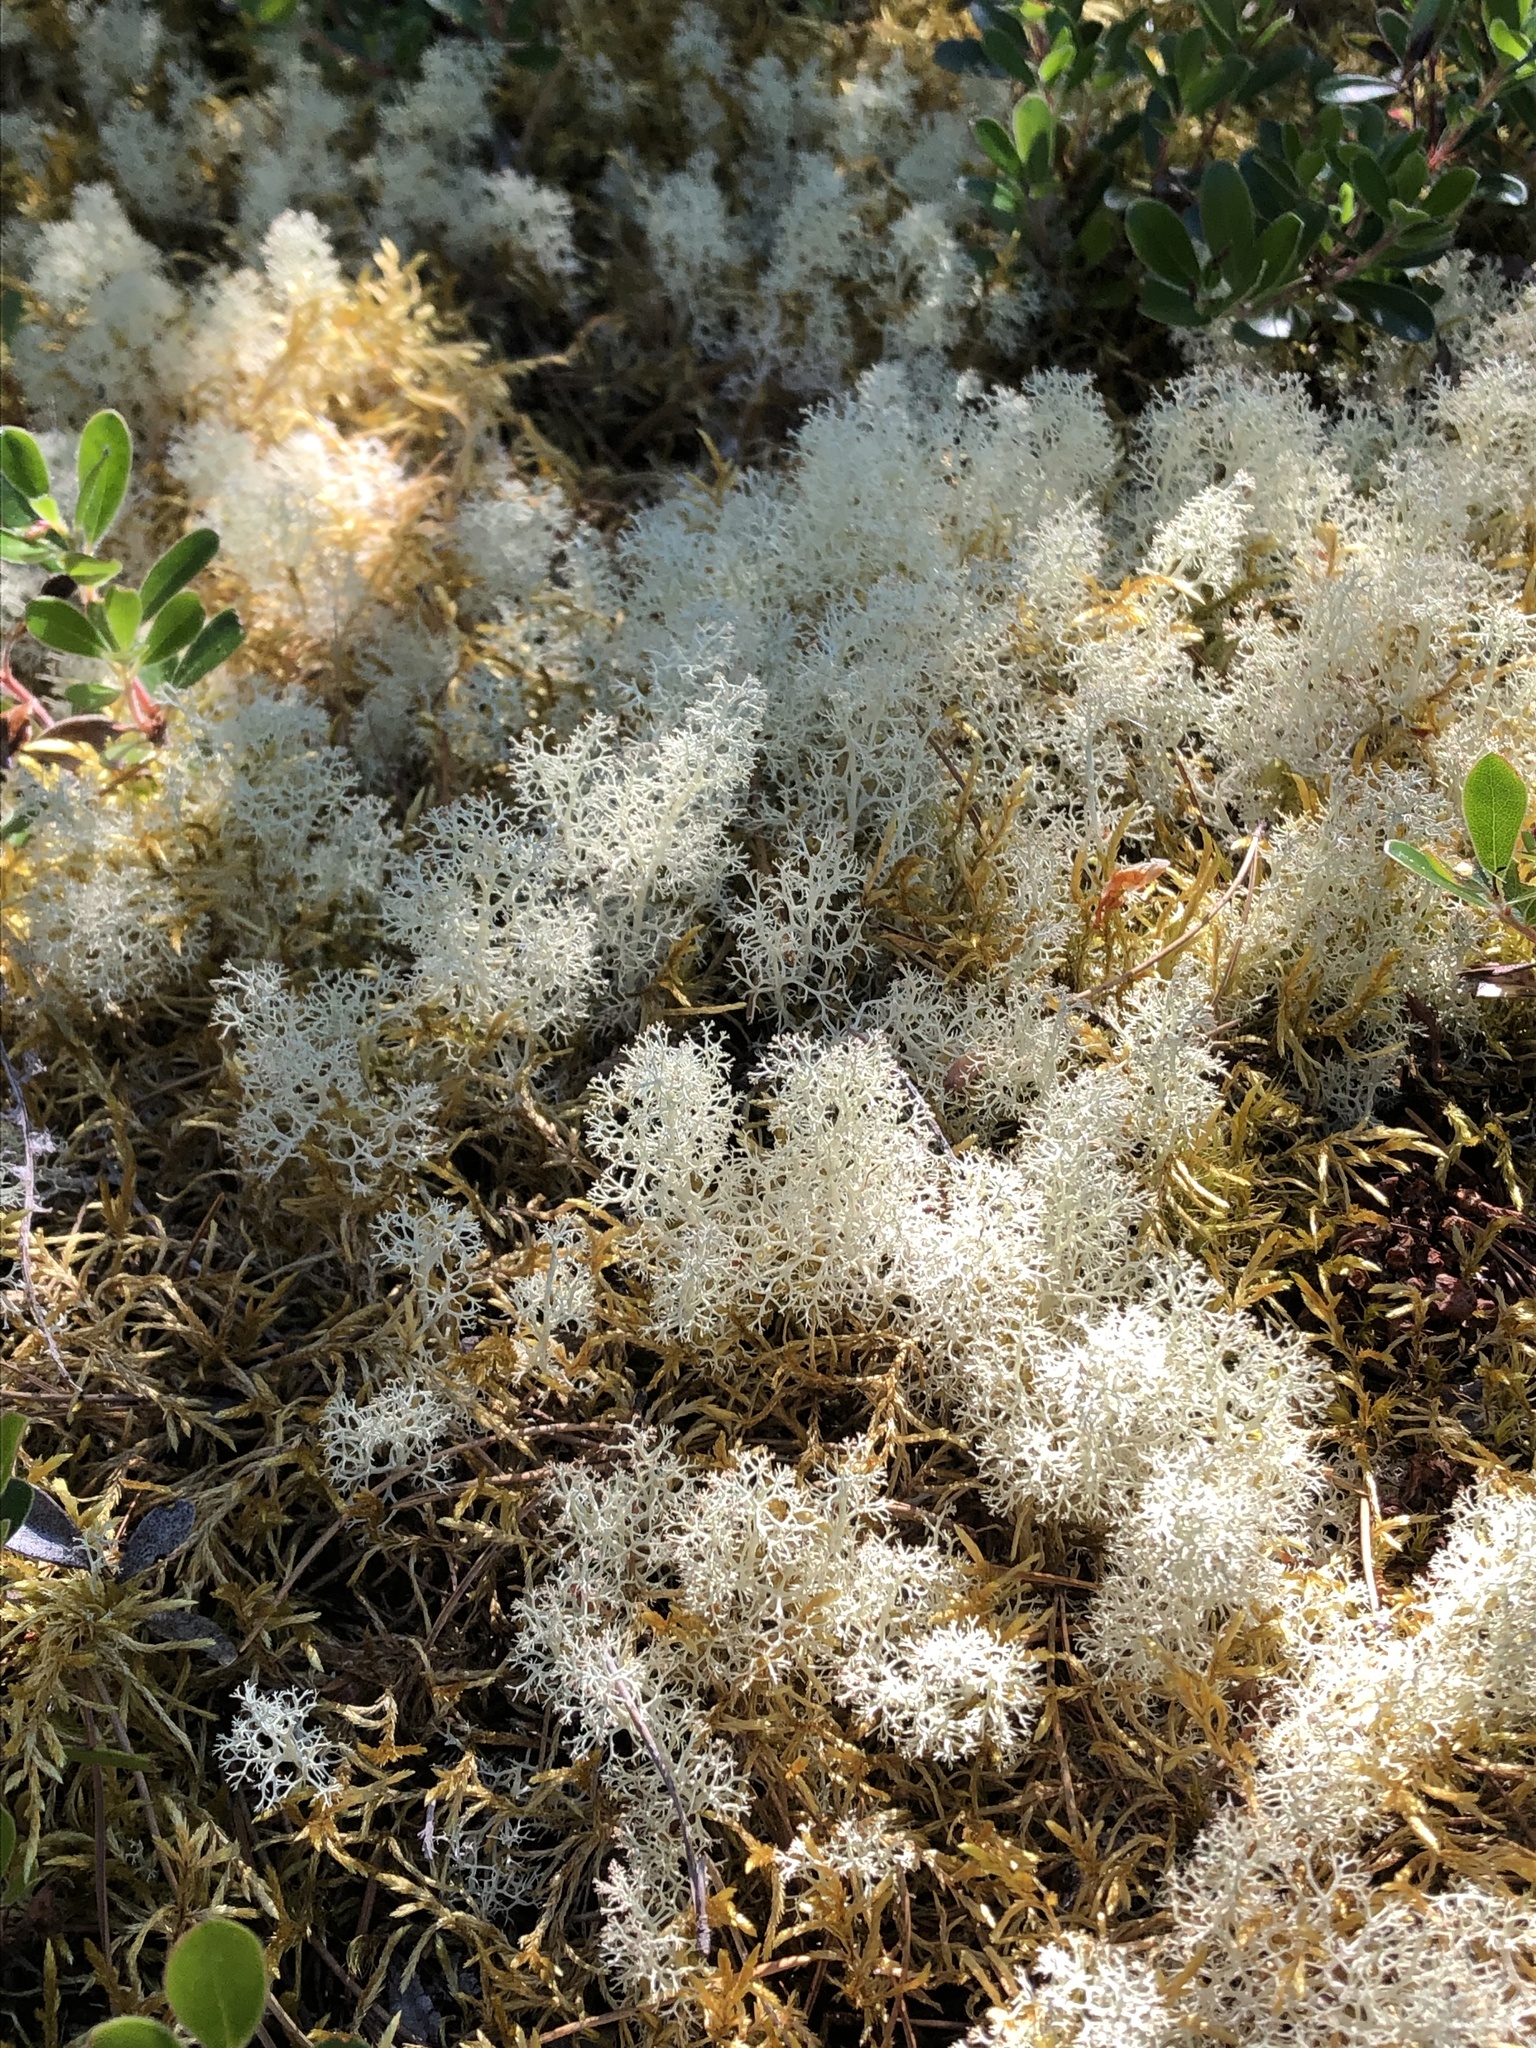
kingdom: Fungi
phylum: Ascomycota
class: Lecanoromycetes
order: Lecanorales
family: Cladoniaceae
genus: Cladonia
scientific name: Cladonia portentosa
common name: Reindeer lichen
